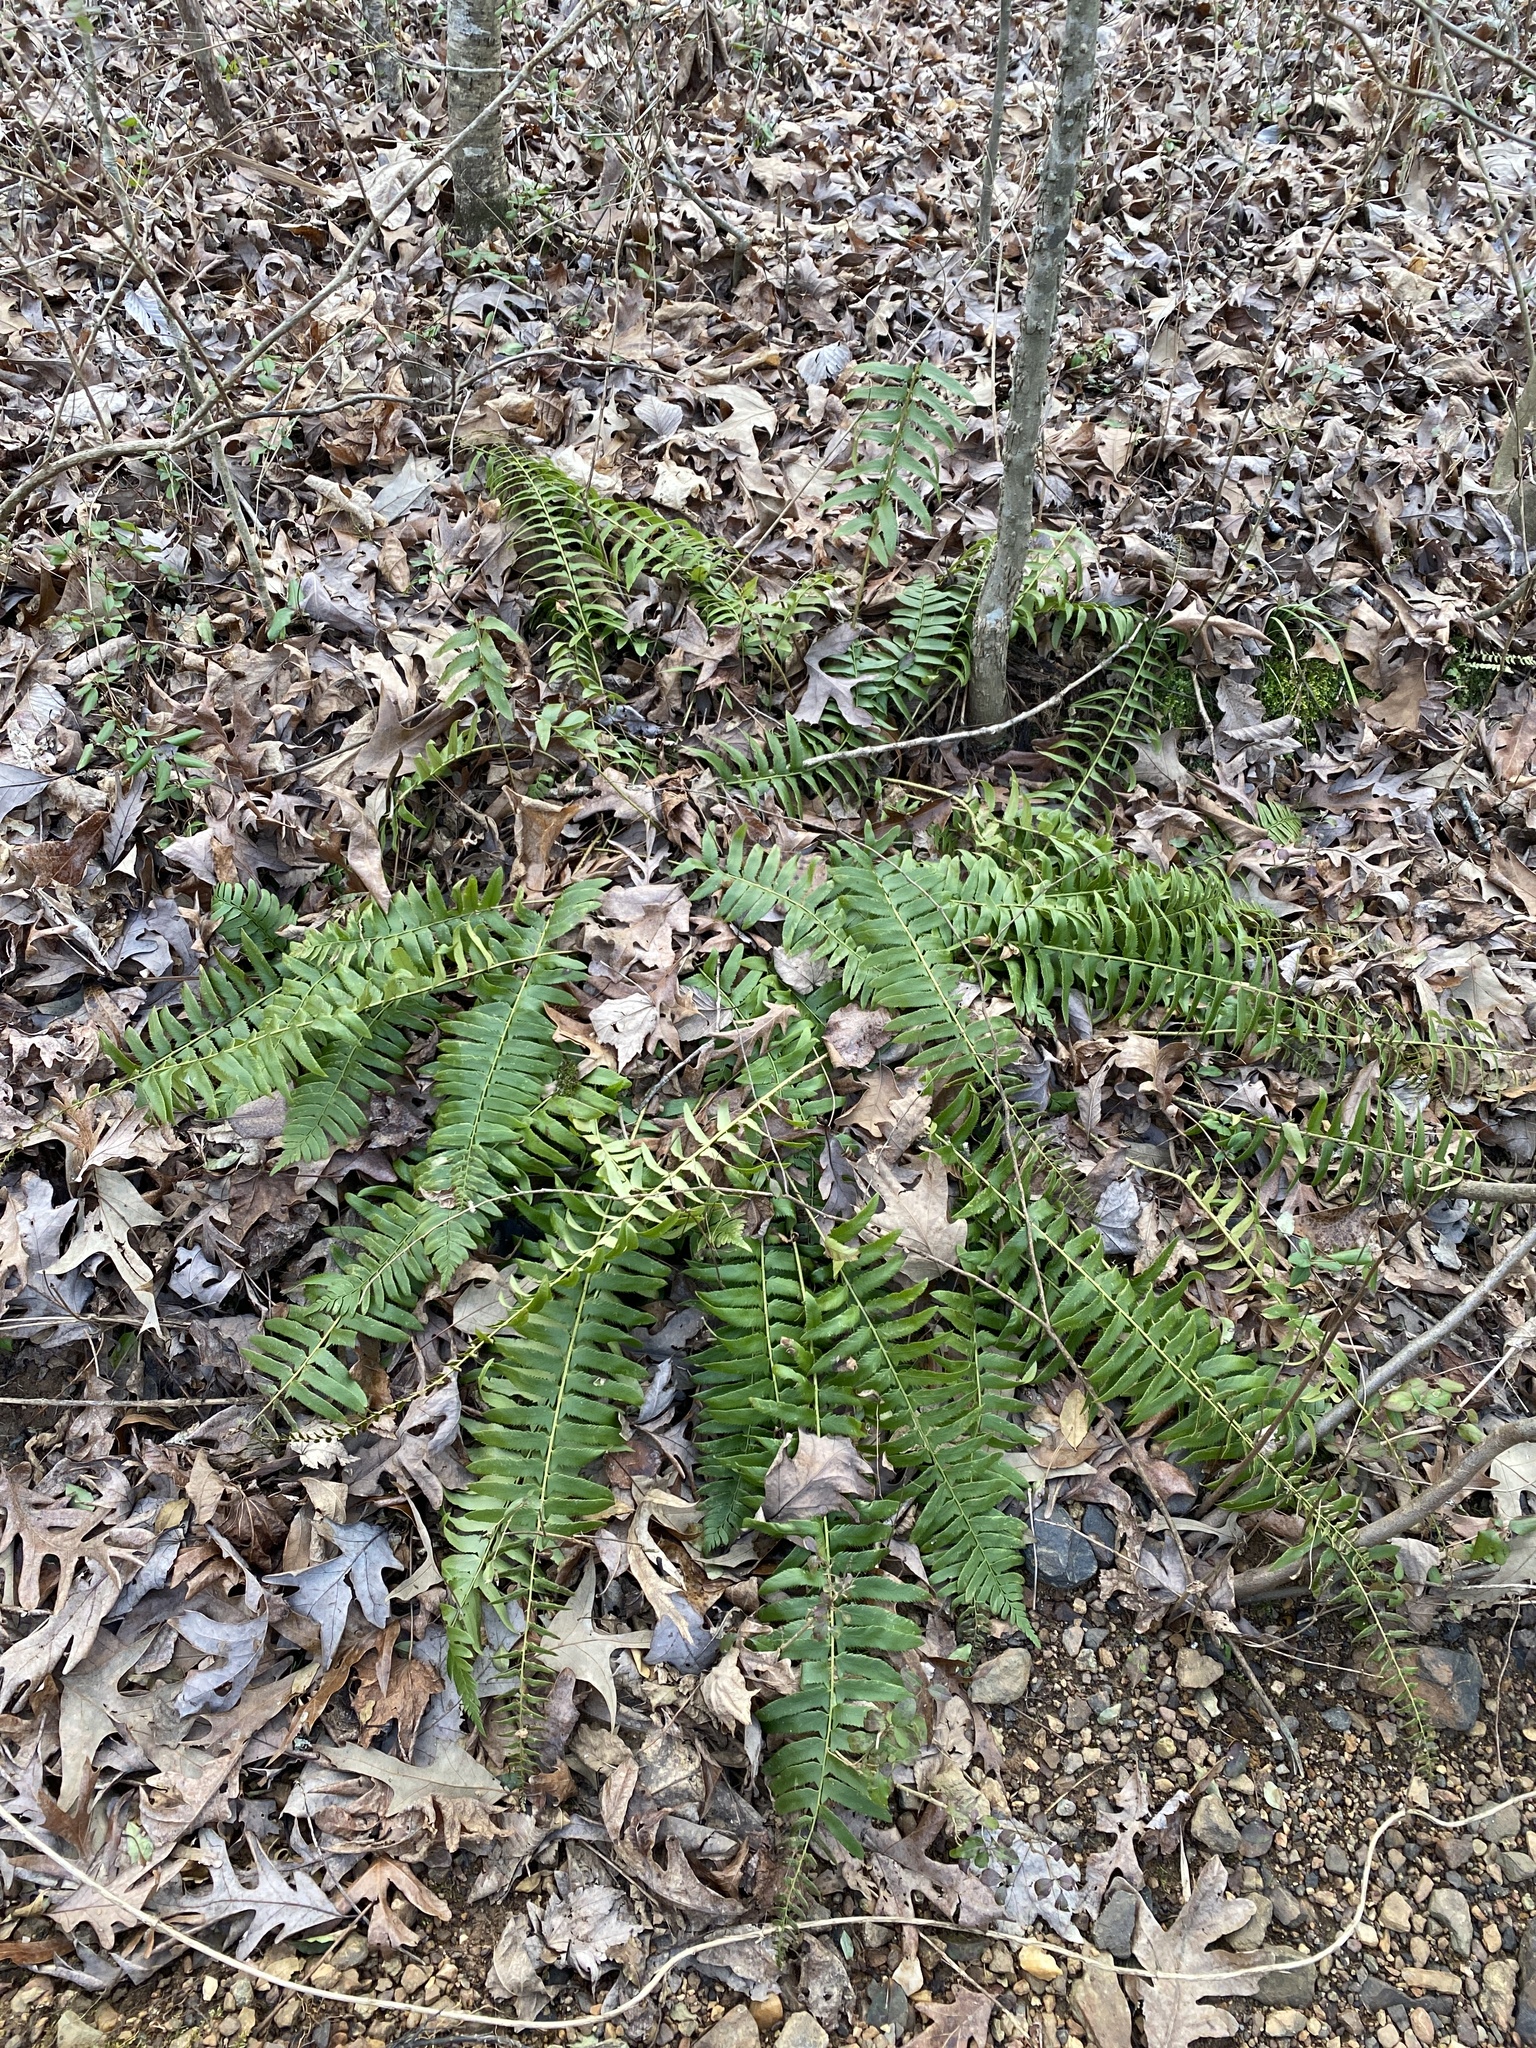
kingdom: Plantae
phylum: Tracheophyta
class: Polypodiopsida
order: Polypodiales
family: Dryopteridaceae
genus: Polystichum
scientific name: Polystichum acrostichoides
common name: Christmas fern
